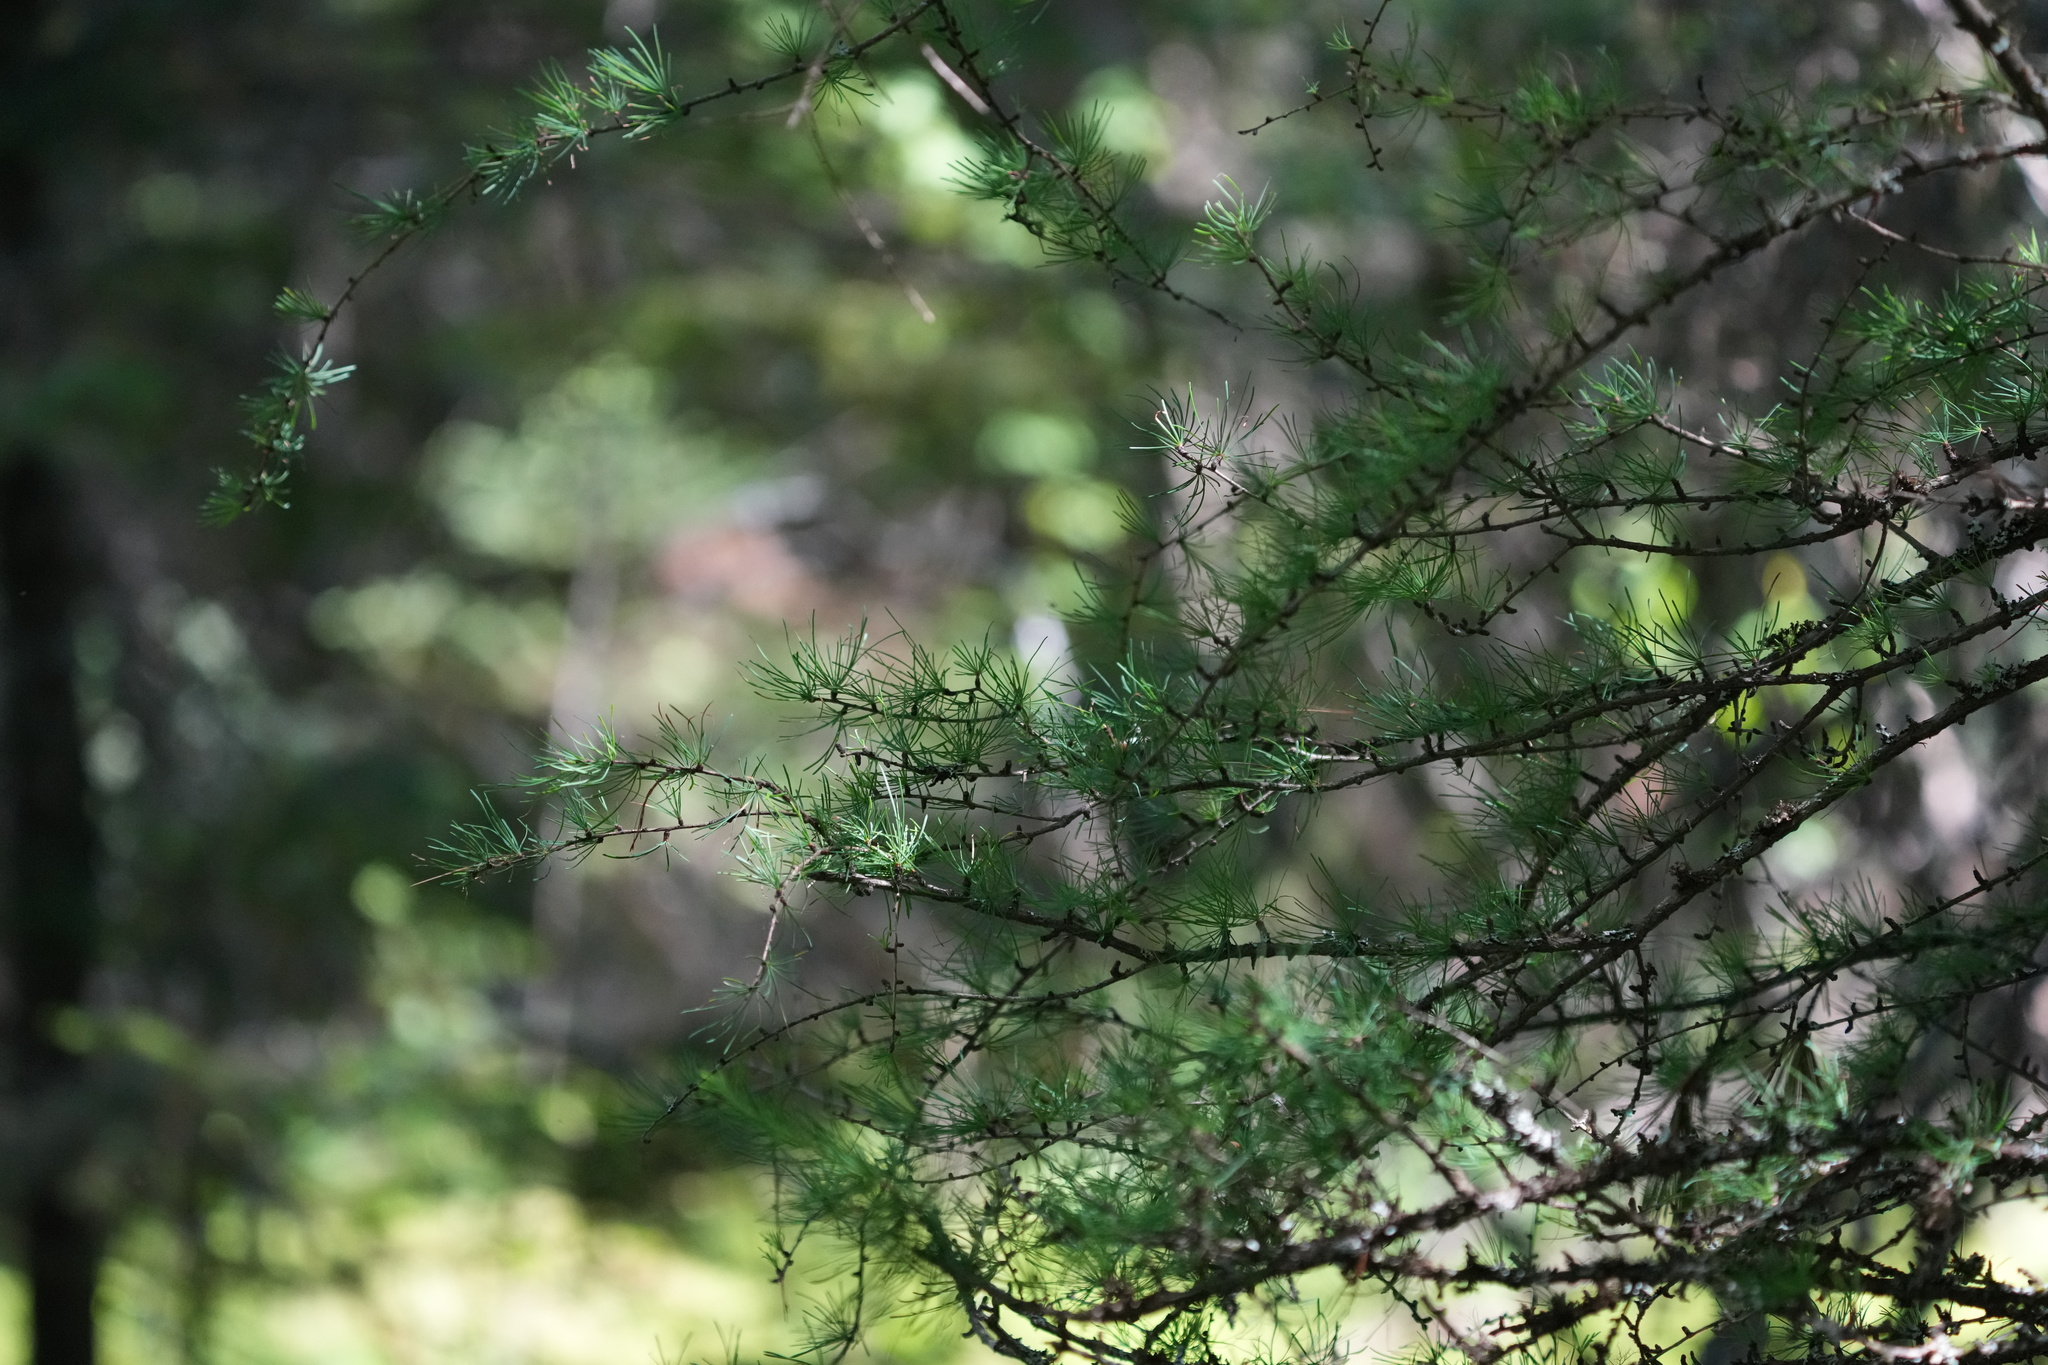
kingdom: Plantae
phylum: Tracheophyta
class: Pinopsida
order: Pinales
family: Pinaceae
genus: Larix
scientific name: Larix laricina
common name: American larch
